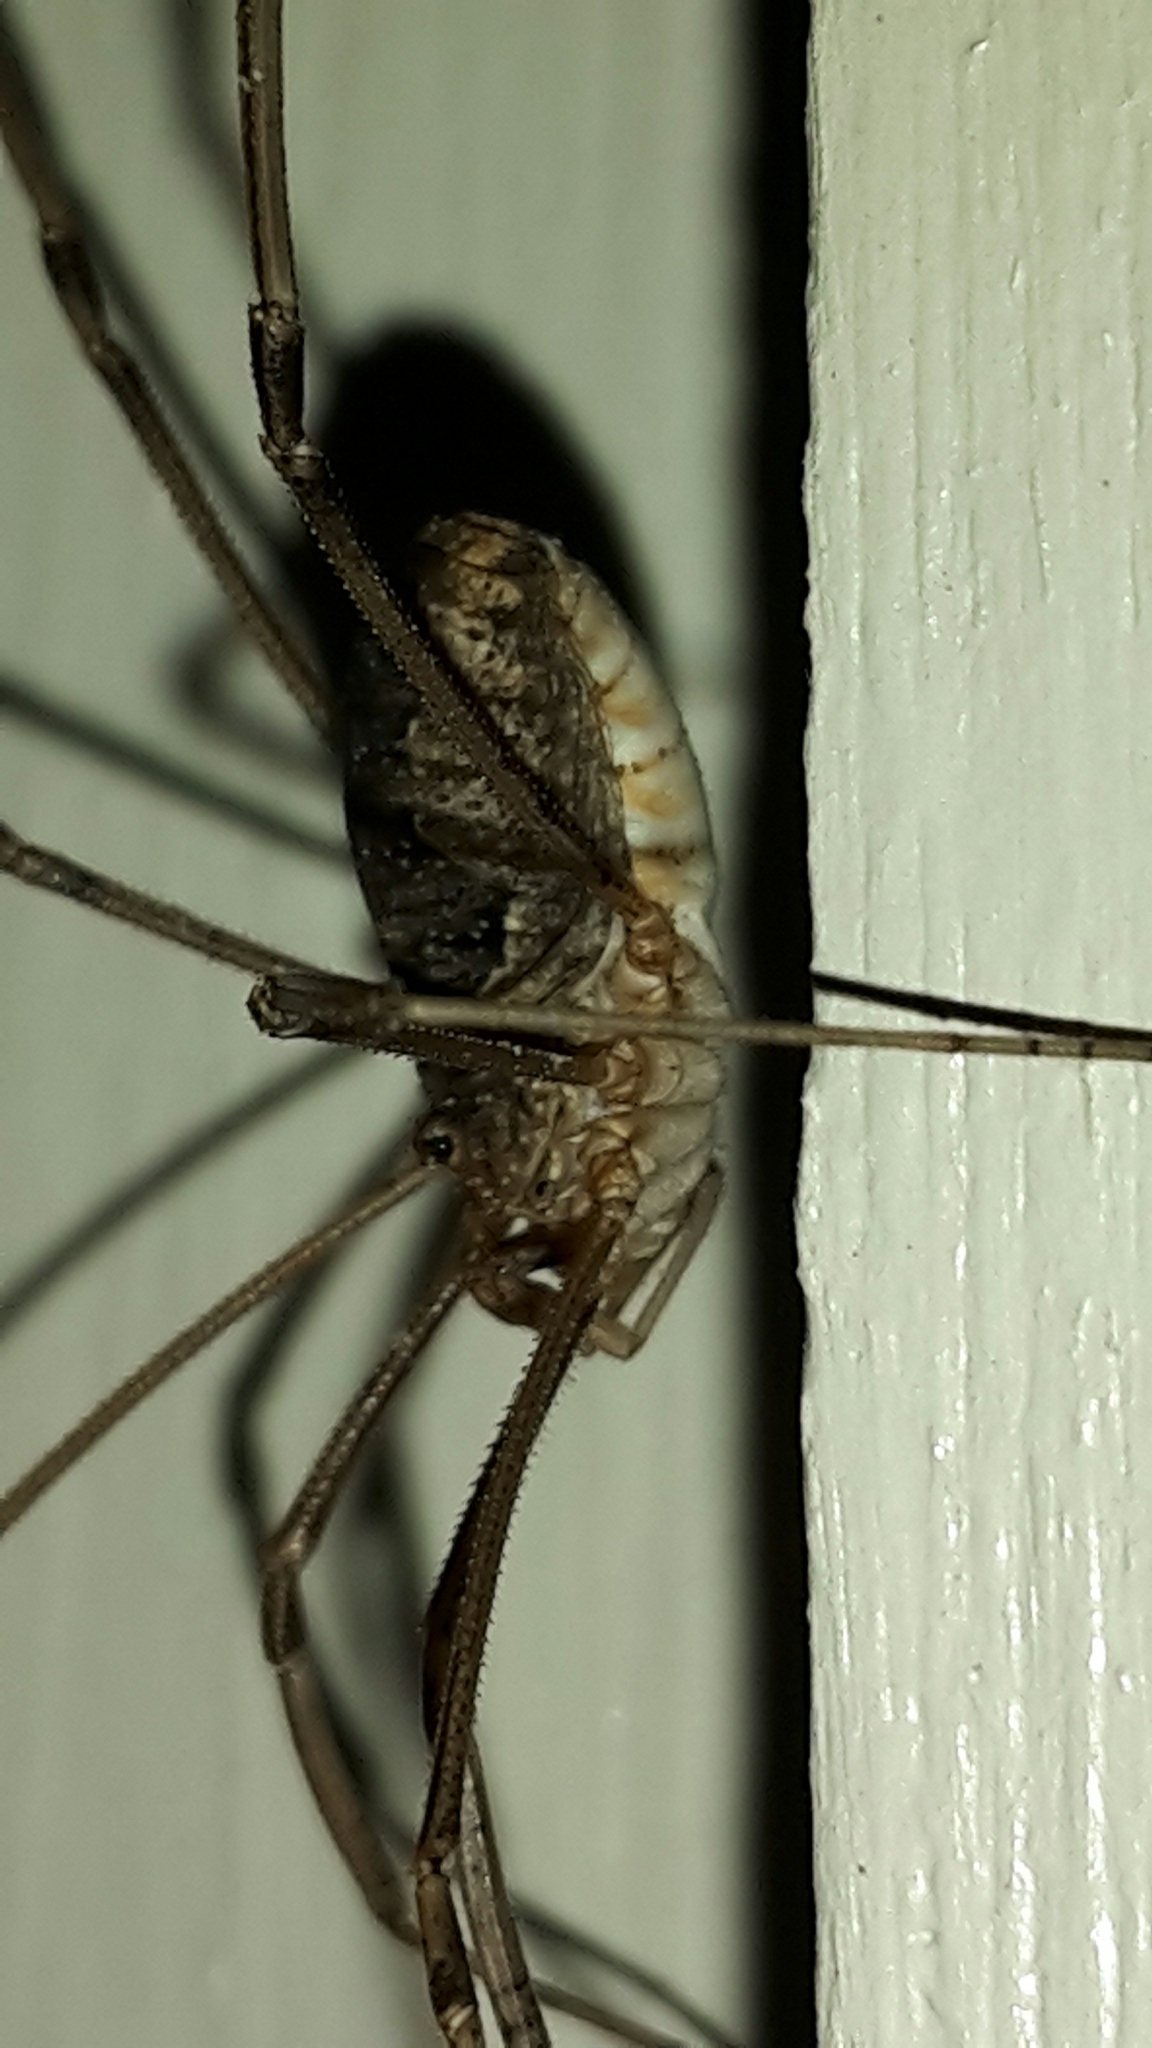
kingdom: Animalia
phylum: Arthropoda
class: Arachnida
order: Opiliones
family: Phalangiidae
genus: Phalangium
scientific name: Phalangium opilio
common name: Daddy longleg
